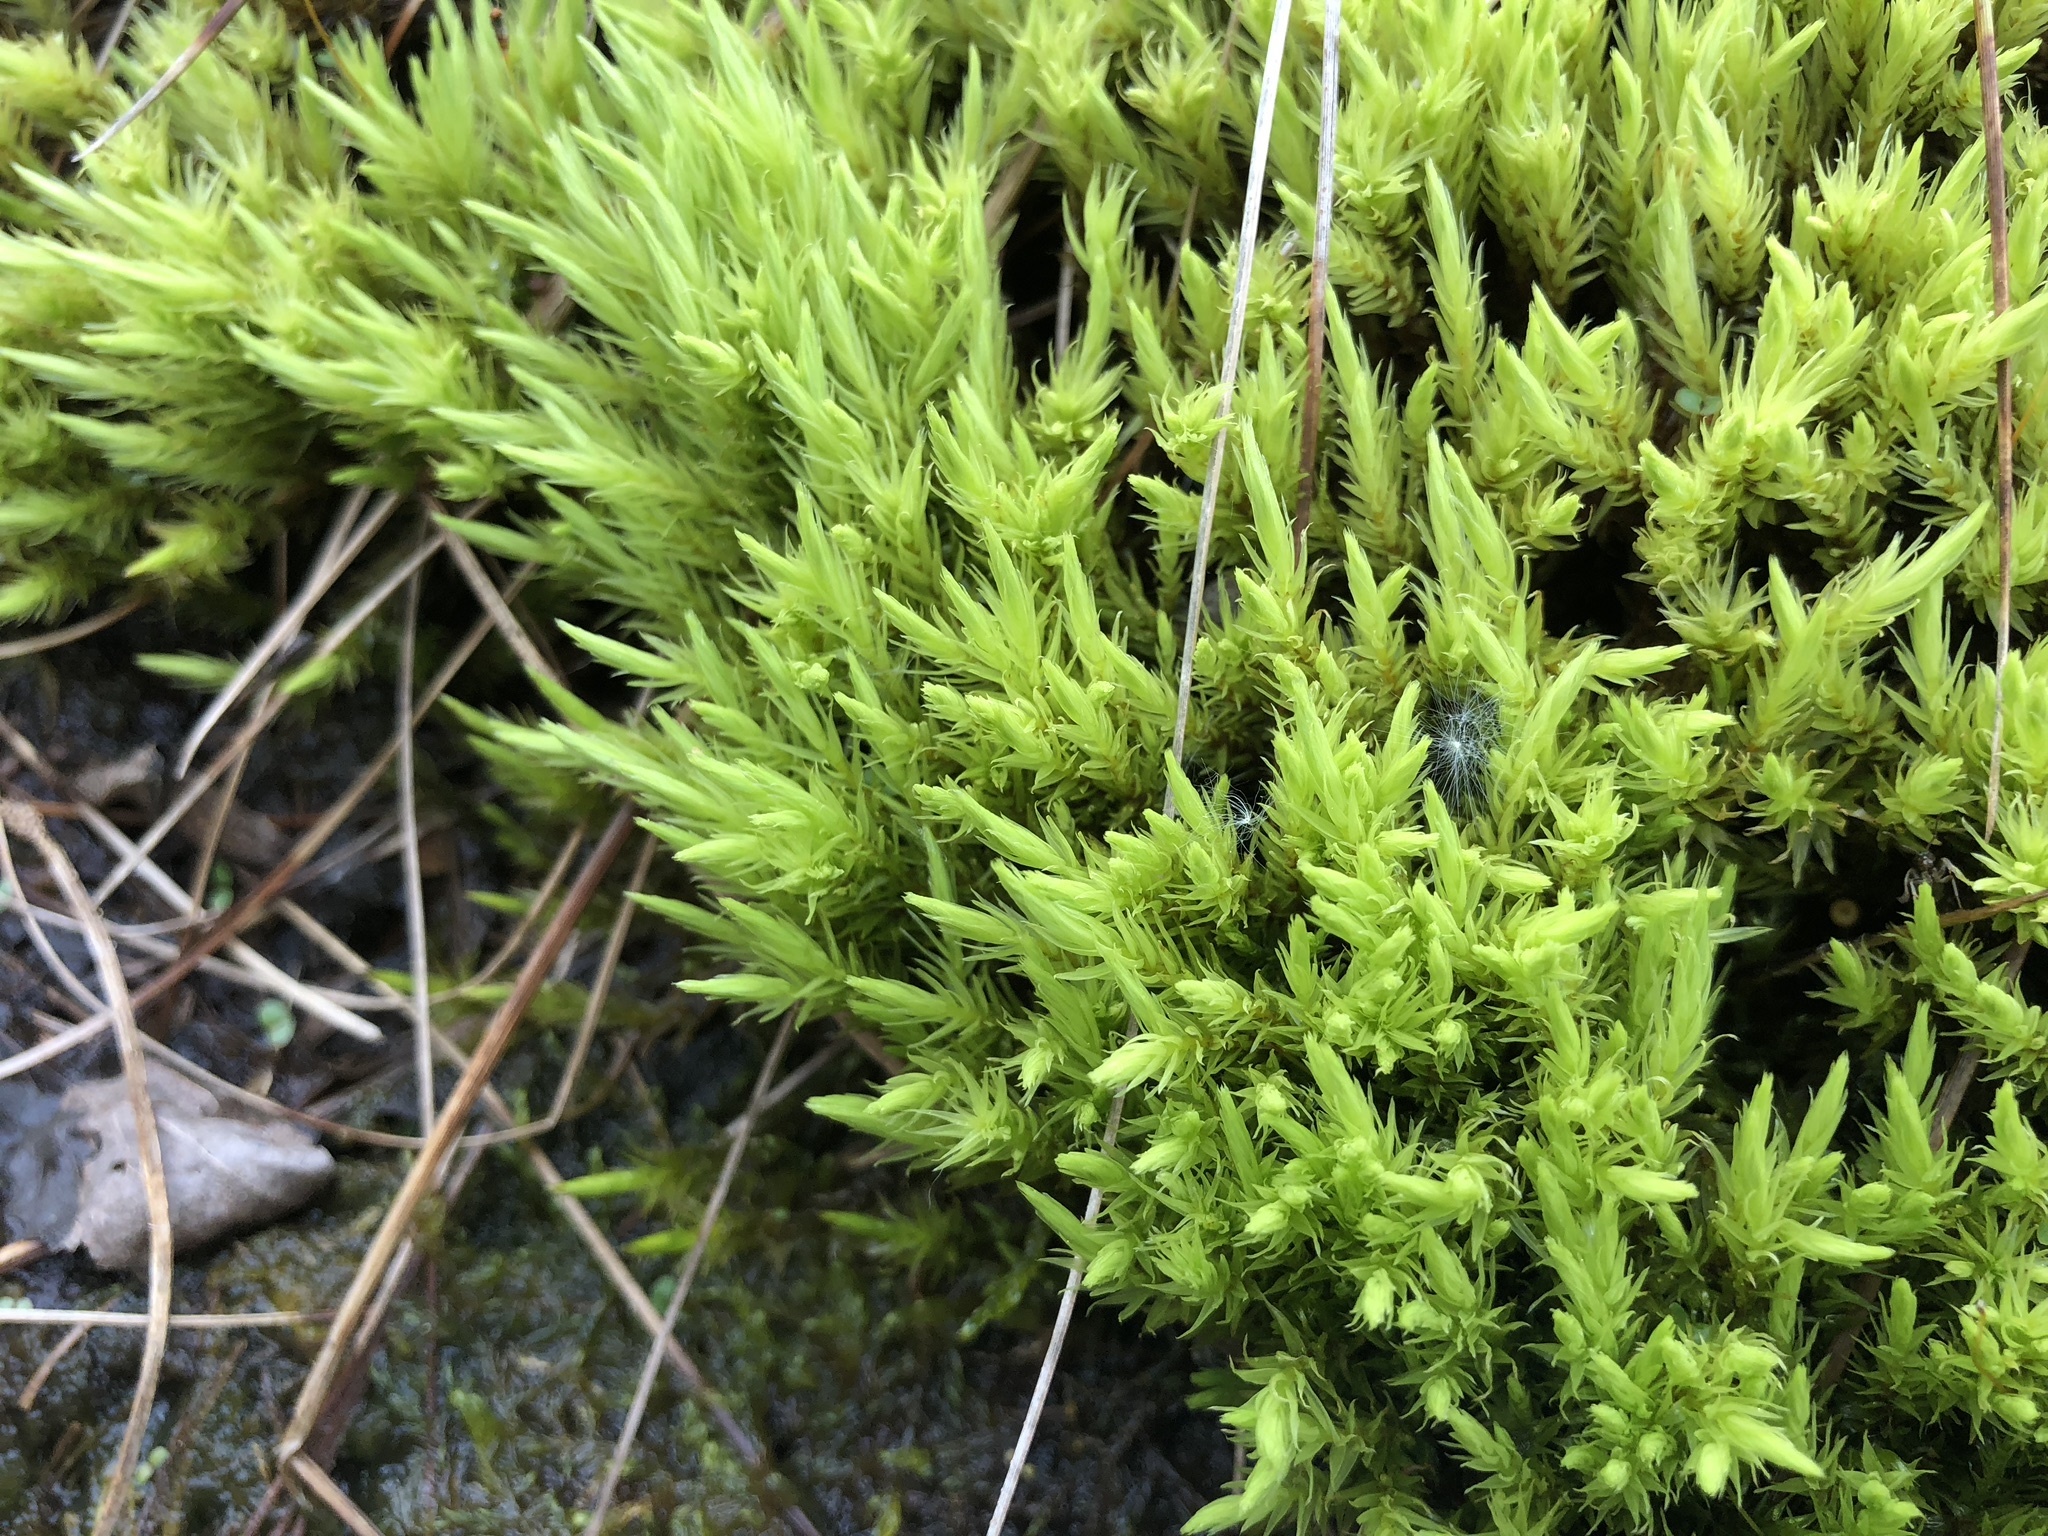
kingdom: Plantae
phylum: Bryophyta
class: Bryopsida
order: Aulacomniales
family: Aulacomniaceae
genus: Aulacomnium
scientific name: Aulacomnium palustre
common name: Bog groove-moss
